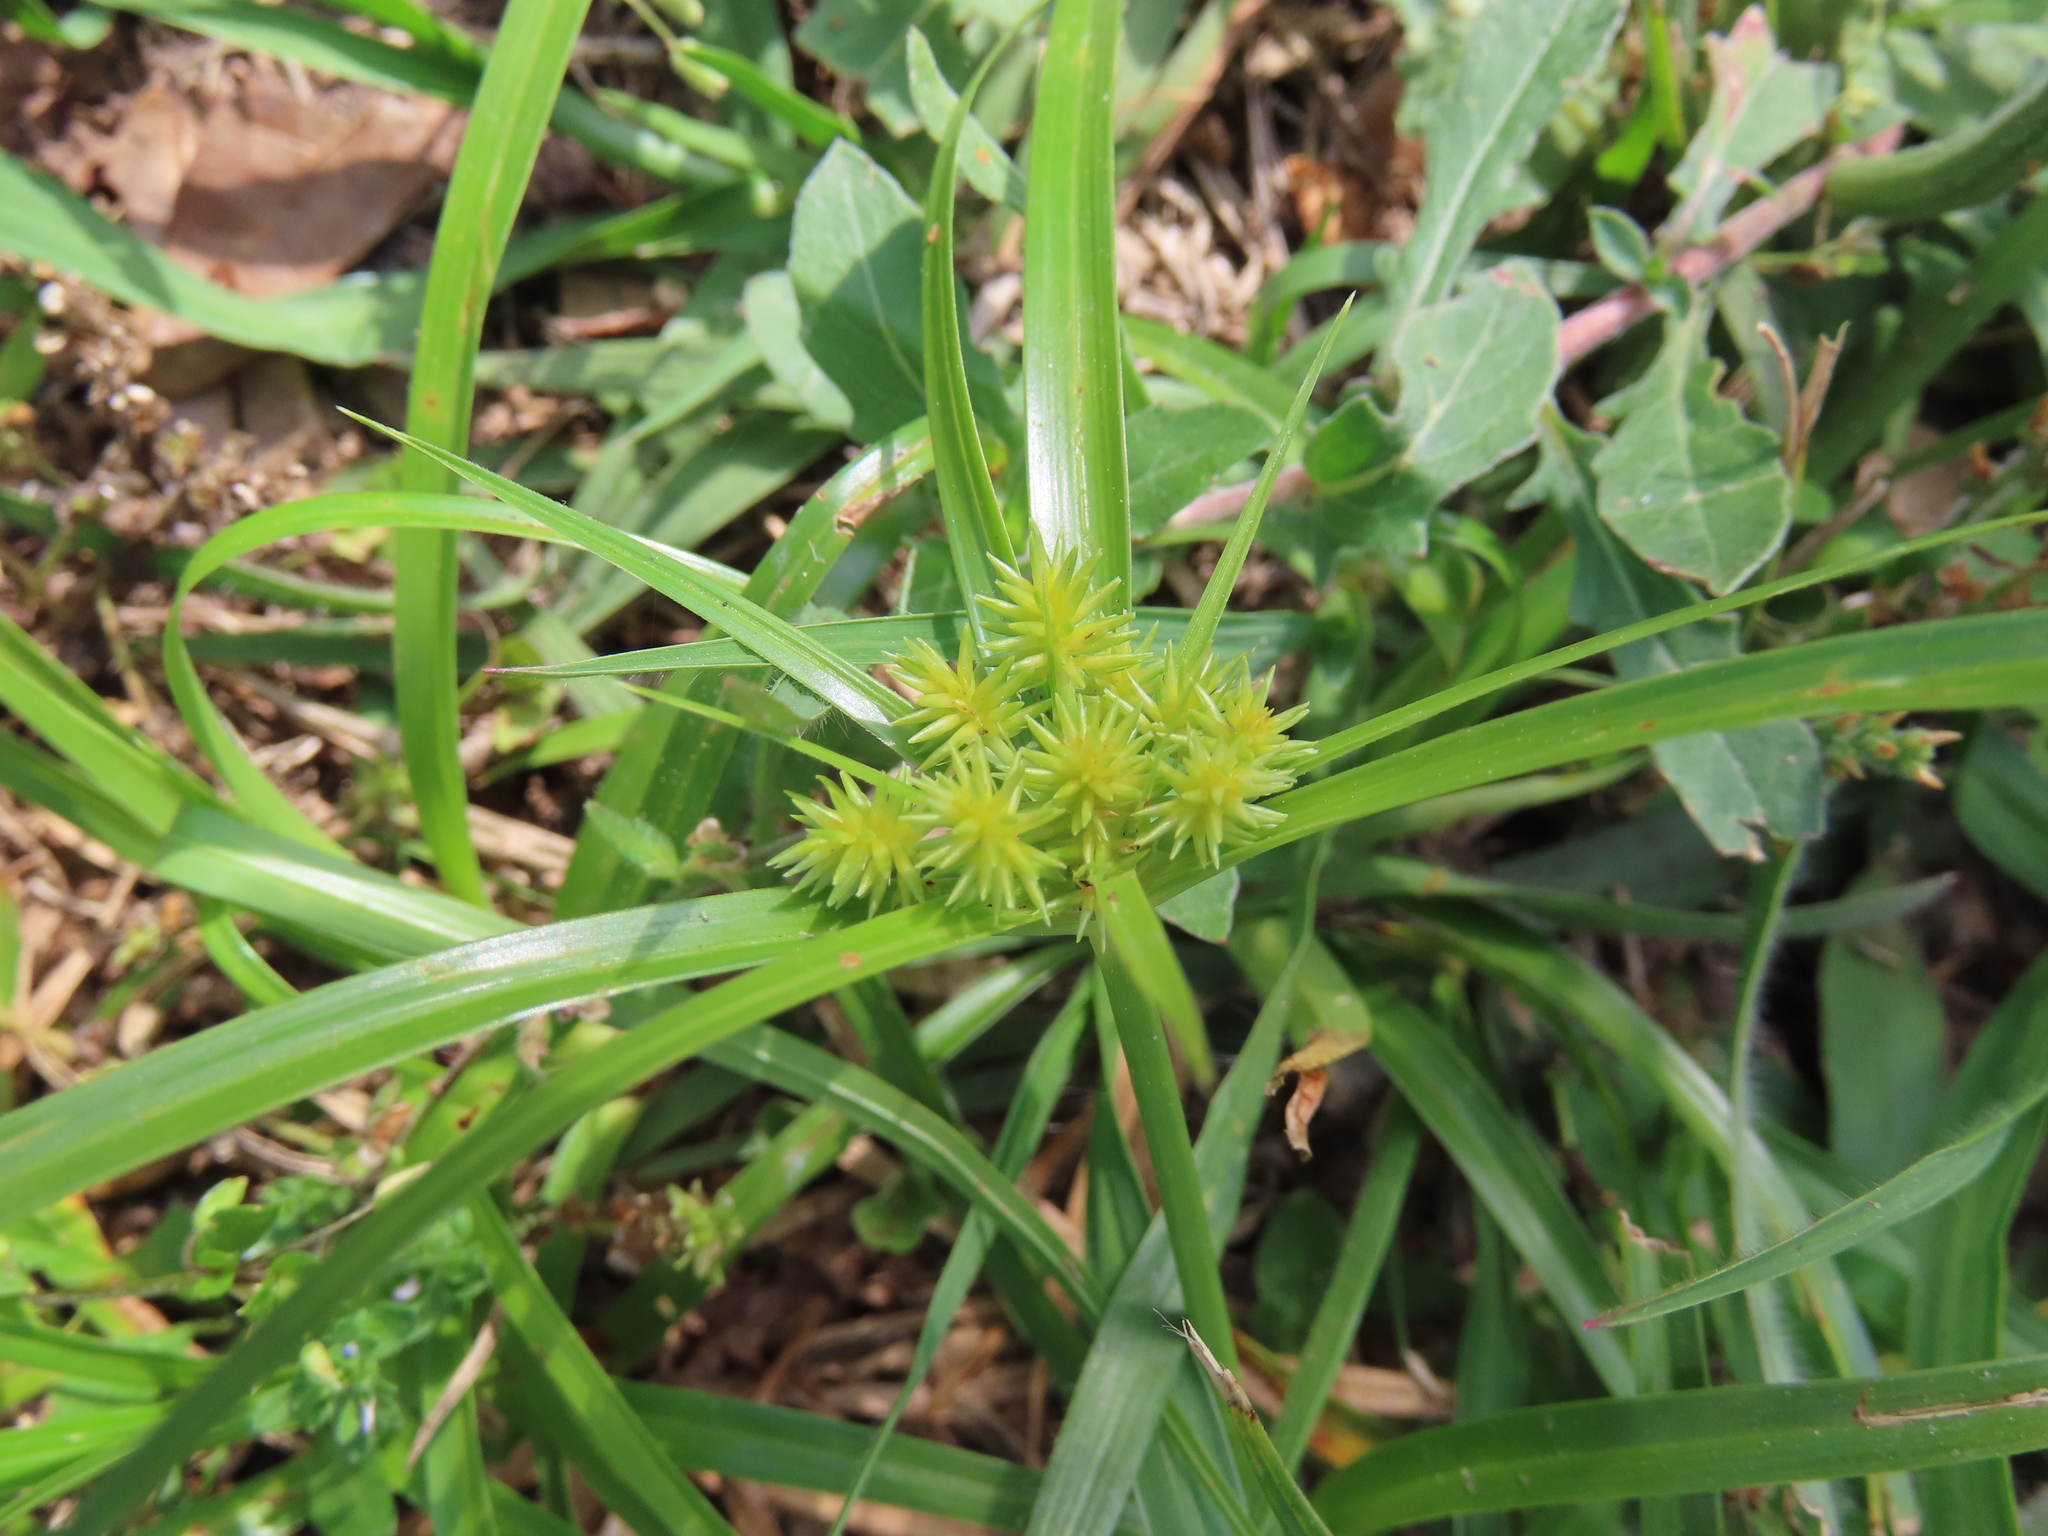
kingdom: Plantae
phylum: Tracheophyta
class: Liliopsida
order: Poales
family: Cyperaceae
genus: Cyperus
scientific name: Cyperus croceus
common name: Baldwin's flatsedge
